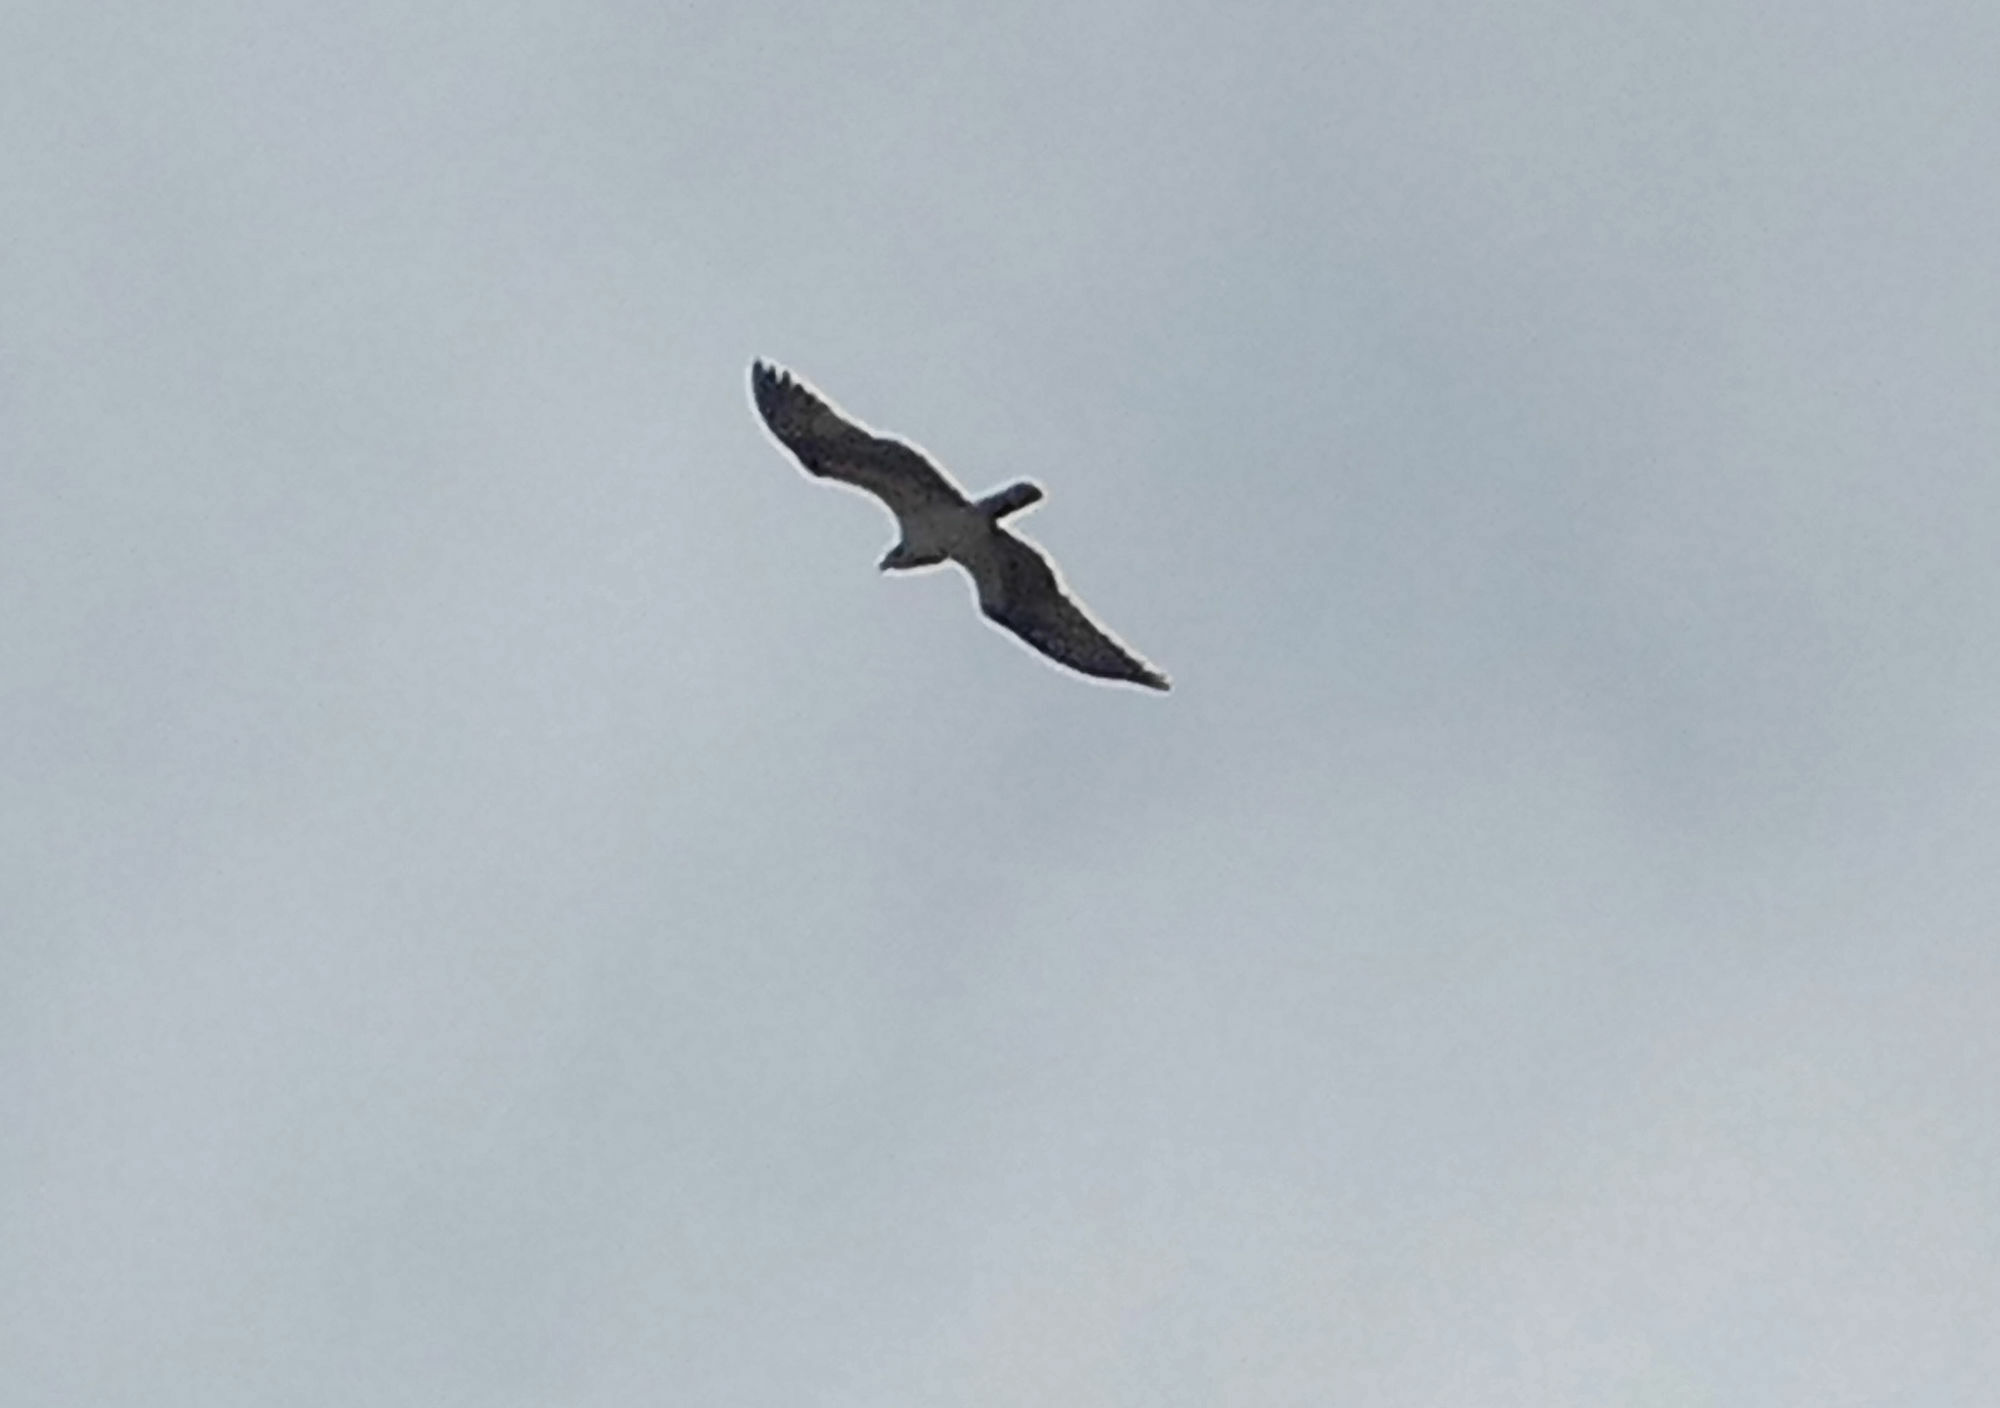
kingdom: Animalia
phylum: Chordata
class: Aves
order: Accipitriformes
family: Pandionidae
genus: Pandion
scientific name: Pandion haliaetus
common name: Osprey
